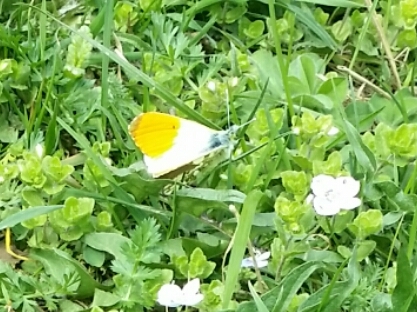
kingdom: Animalia
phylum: Arthropoda
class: Insecta
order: Lepidoptera
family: Pieridae
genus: Anthocharis
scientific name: Anthocharis cardamines
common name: Orange-tip
